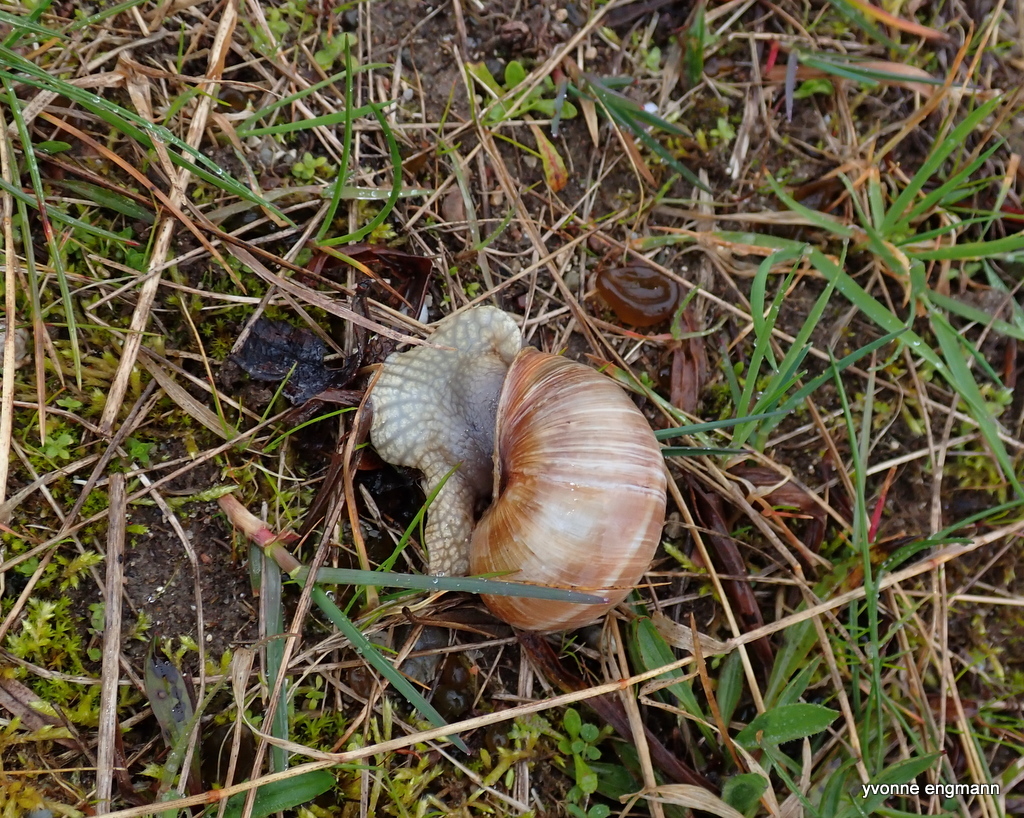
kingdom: Animalia
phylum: Mollusca
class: Gastropoda
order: Stylommatophora
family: Helicidae
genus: Helix
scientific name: Helix pomatia
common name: Roman snail
